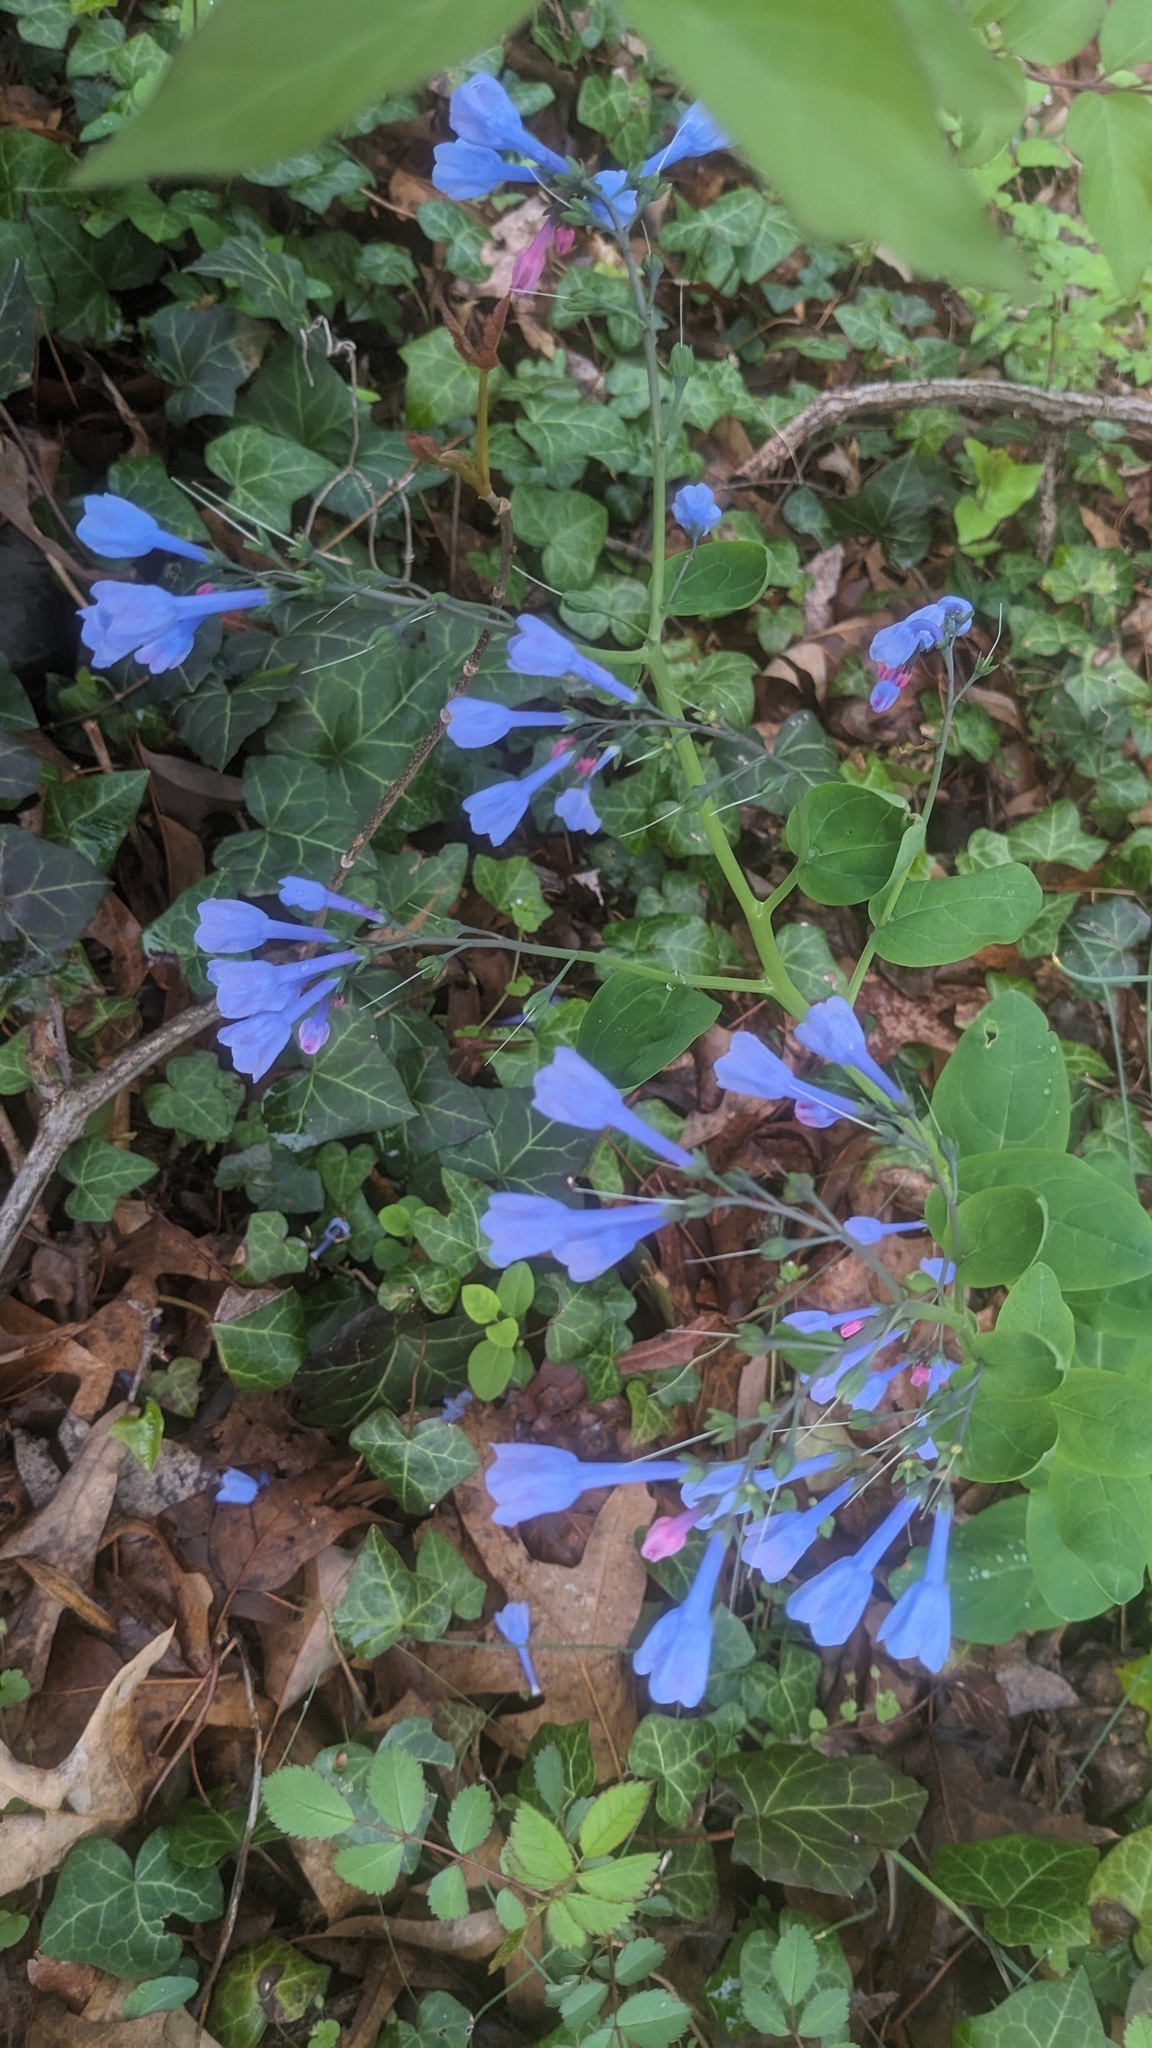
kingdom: Plantae
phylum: Tracheophyta
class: Magnoliopsida
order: Boraginales
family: Boraginaceae
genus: Mertensia
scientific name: Mertensia virginica
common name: Virginia bluebells
